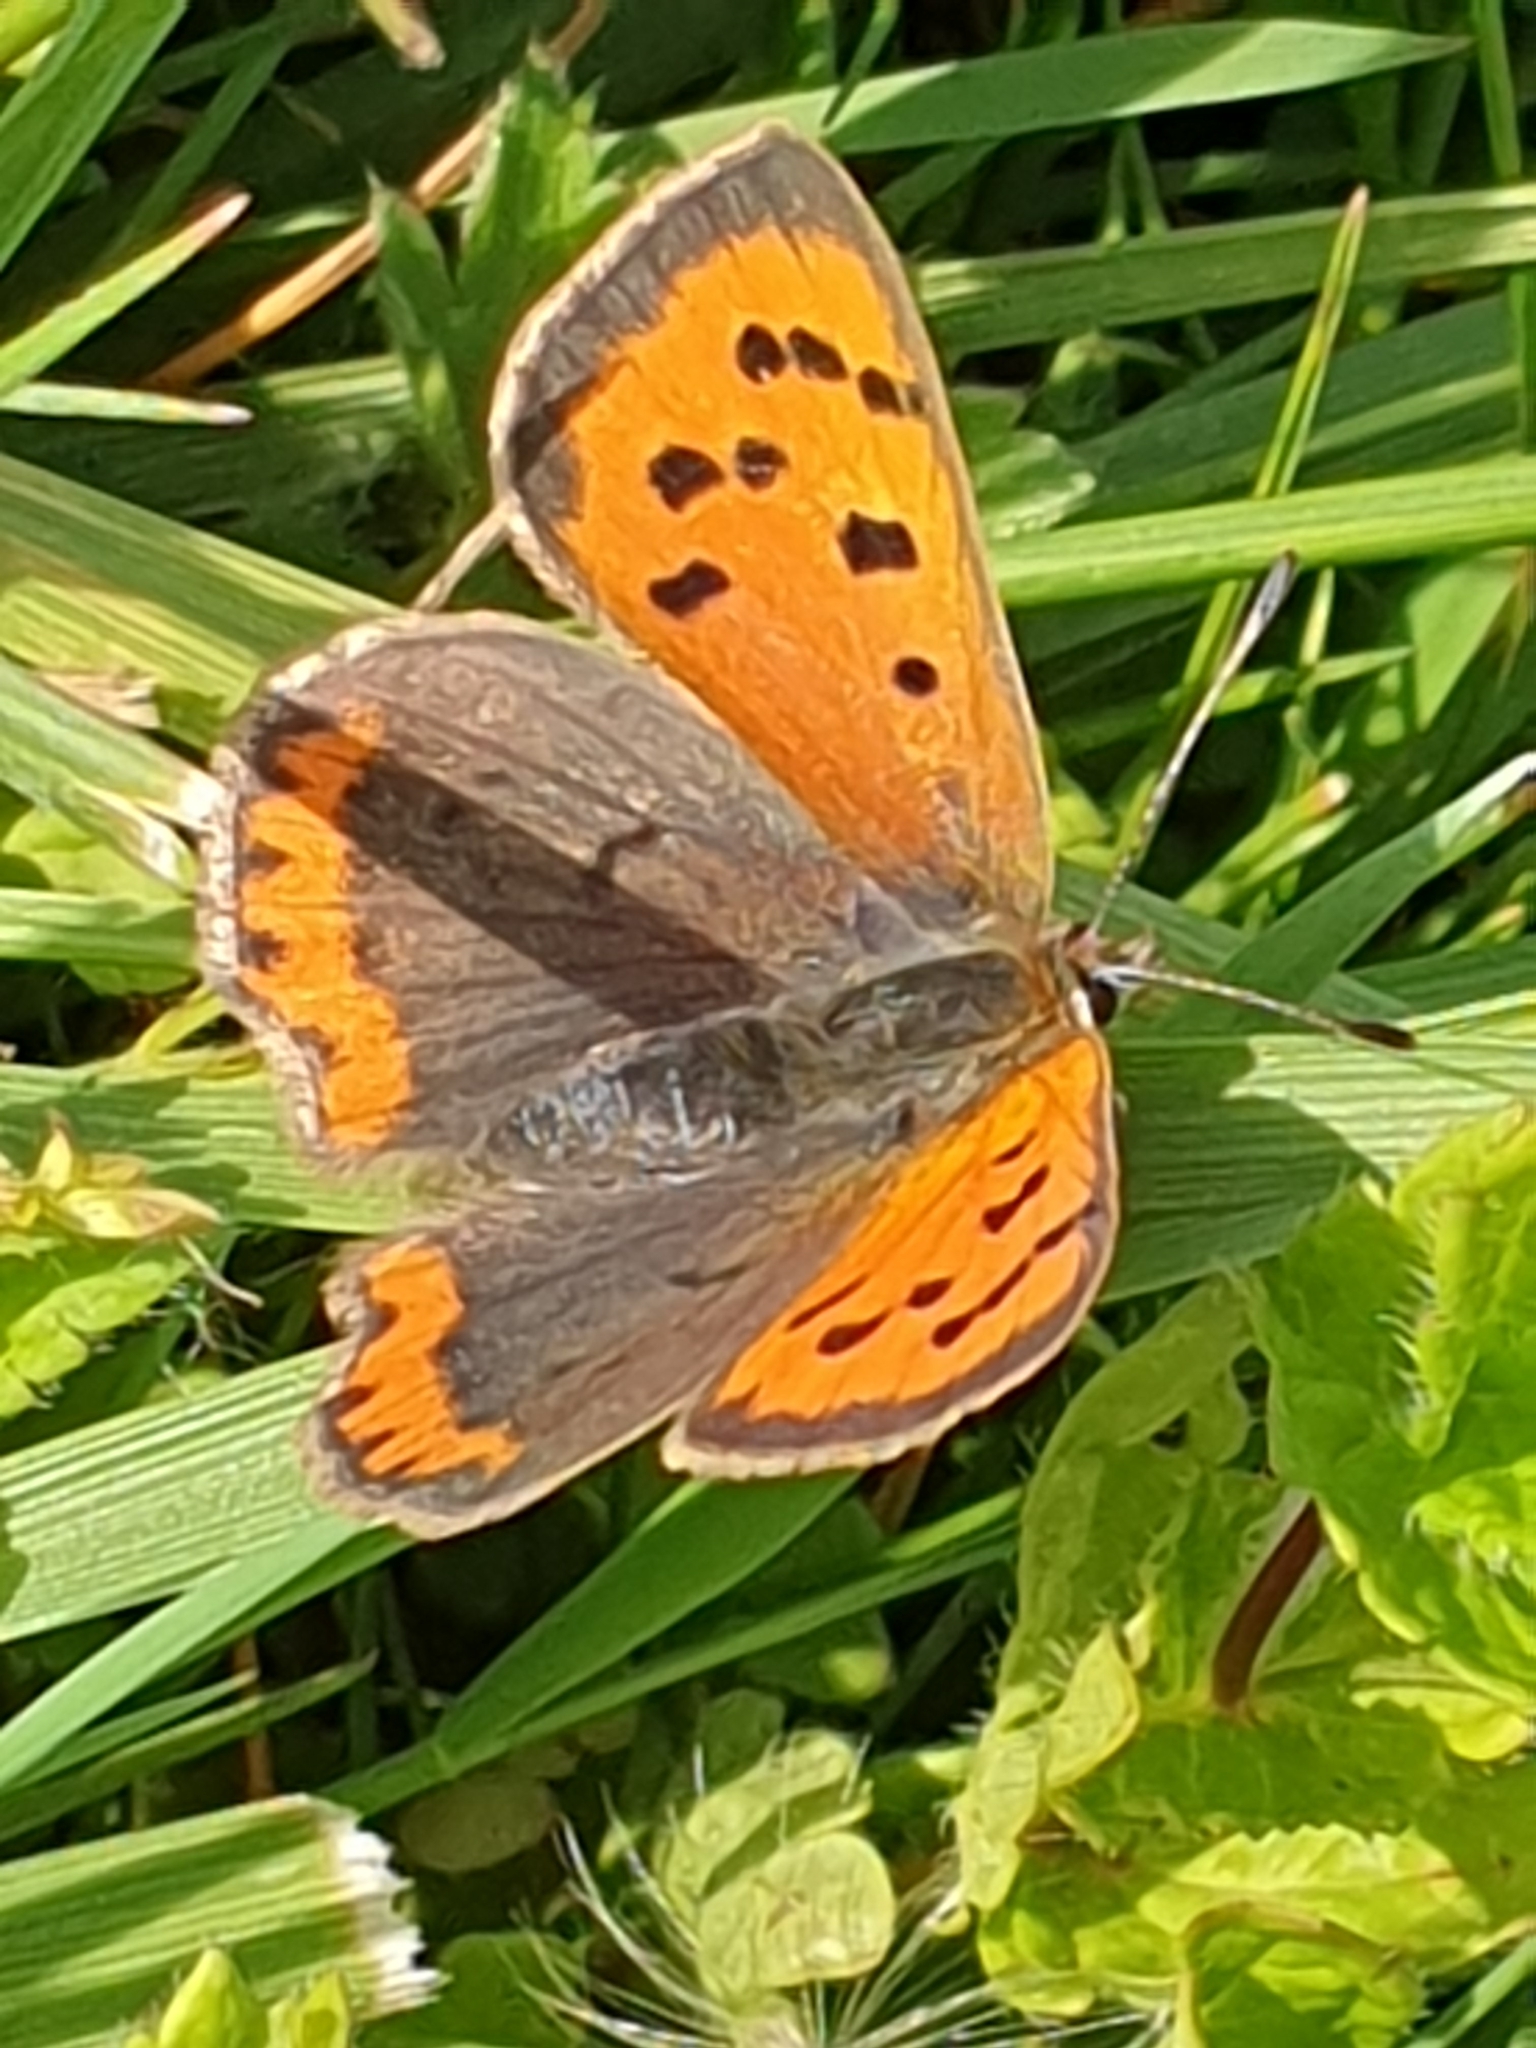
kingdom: Animalia
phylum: Arthropoda
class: Insecta
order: Lepidoptera
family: Lycaenidae
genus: Lycaena
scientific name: Lycaena phlaeas
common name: Small copper
